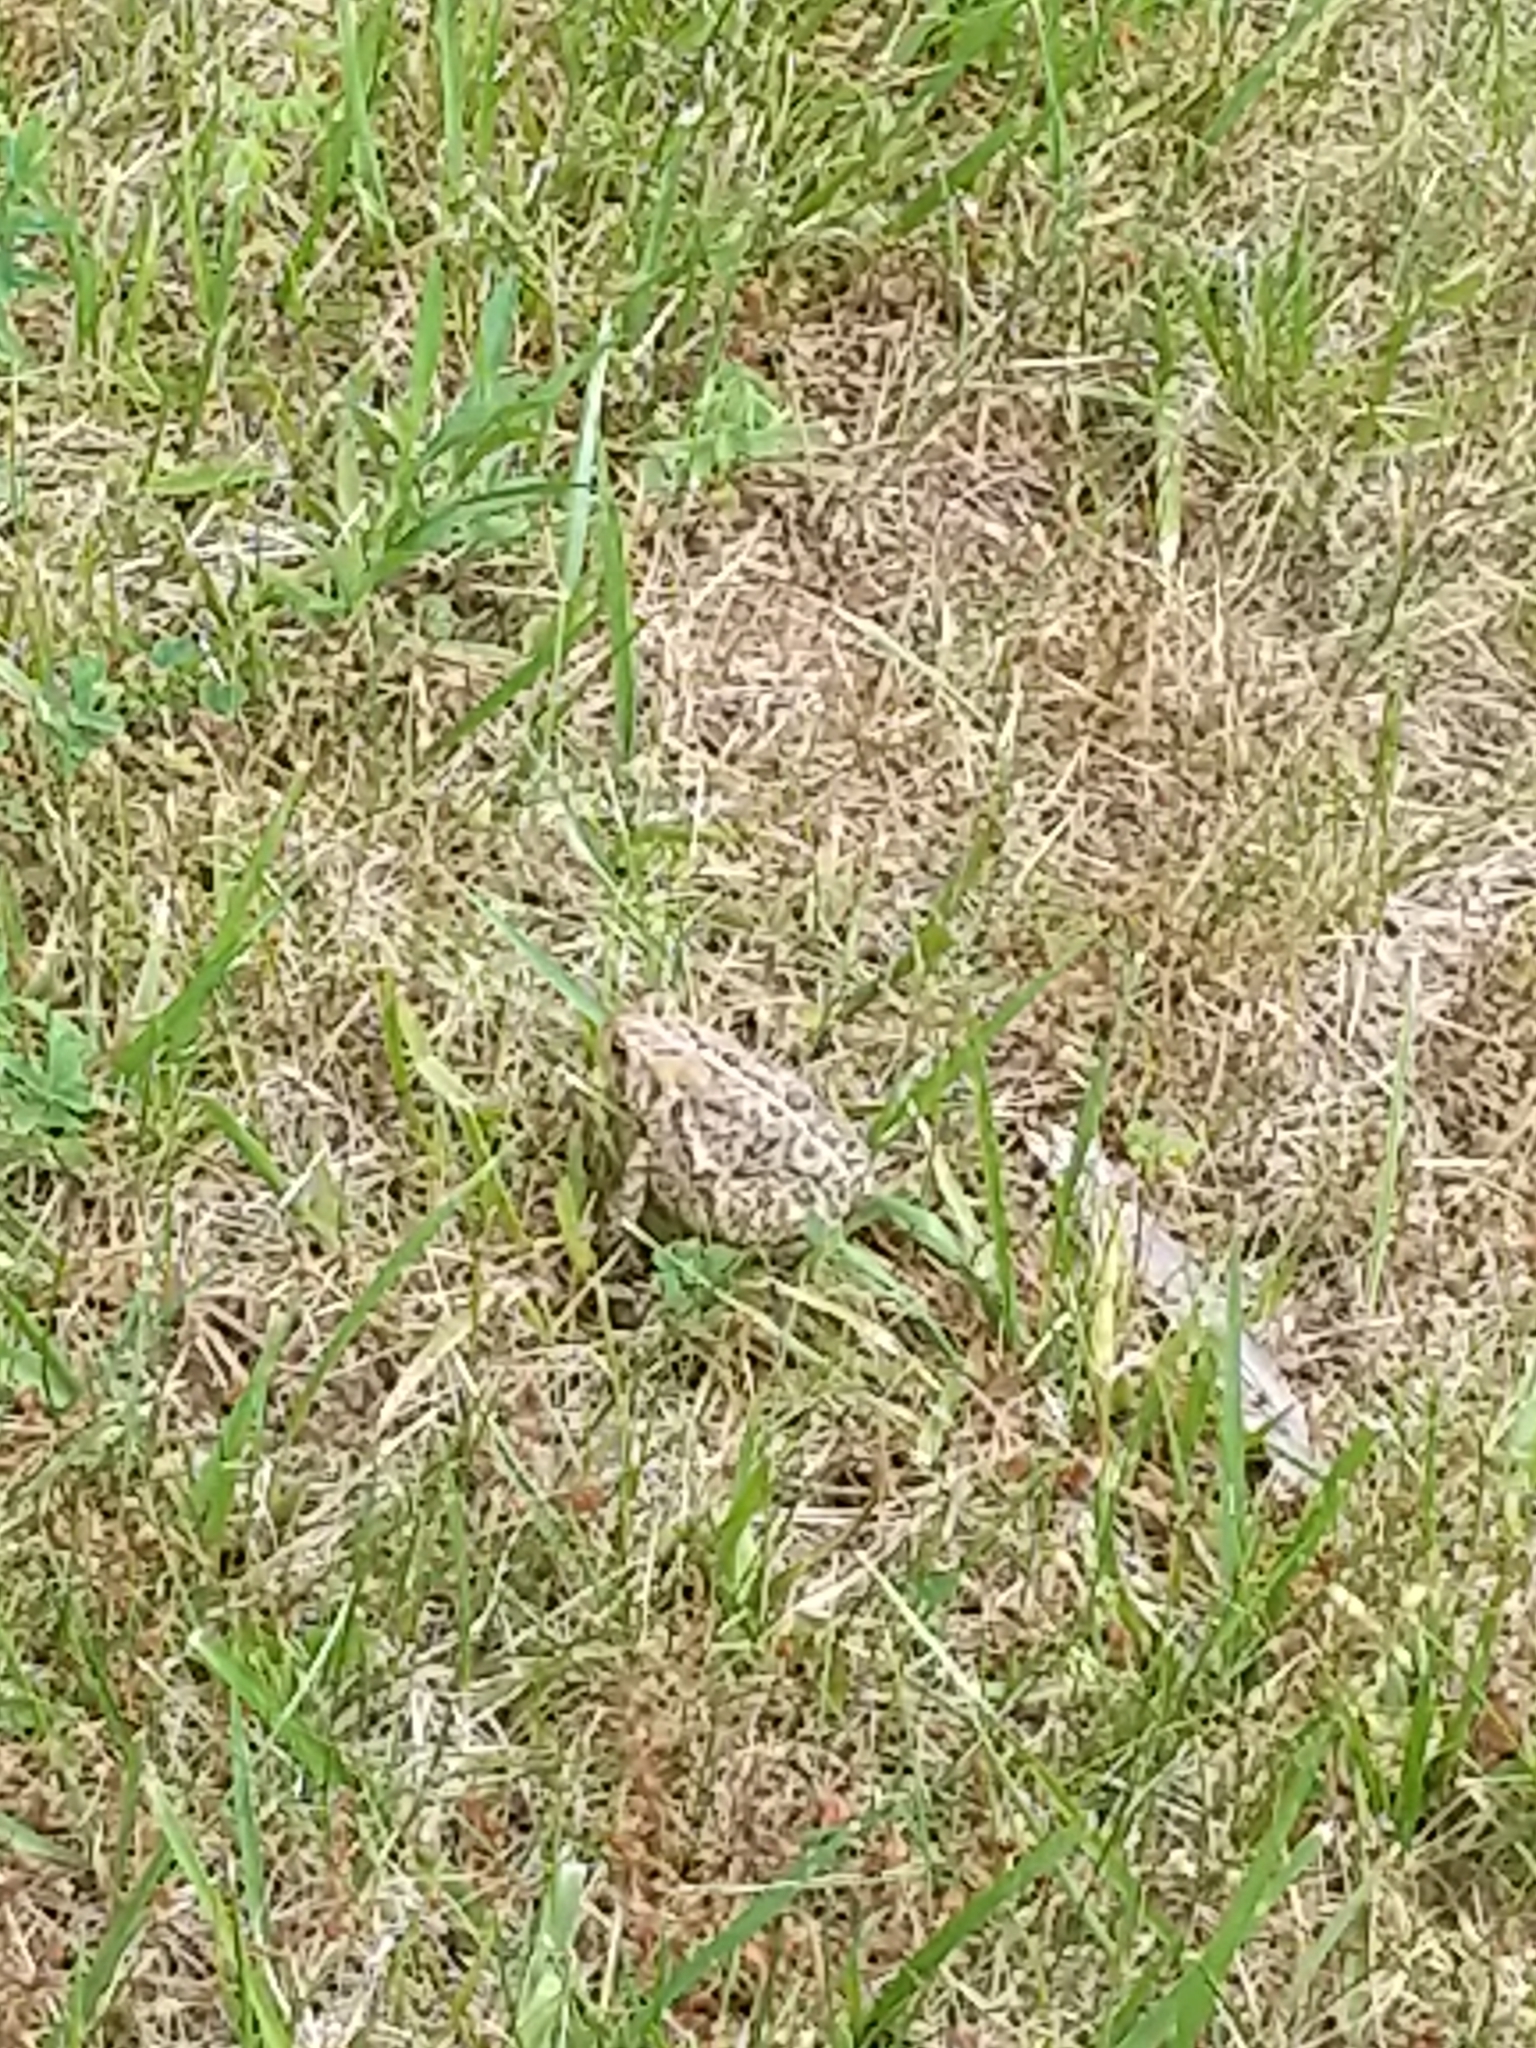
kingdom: Animalia
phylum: Chordata
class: Amphibia
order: Anura
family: Bufonidae
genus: Anaxyrus
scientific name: Anaxyrus americanus
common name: American toad
